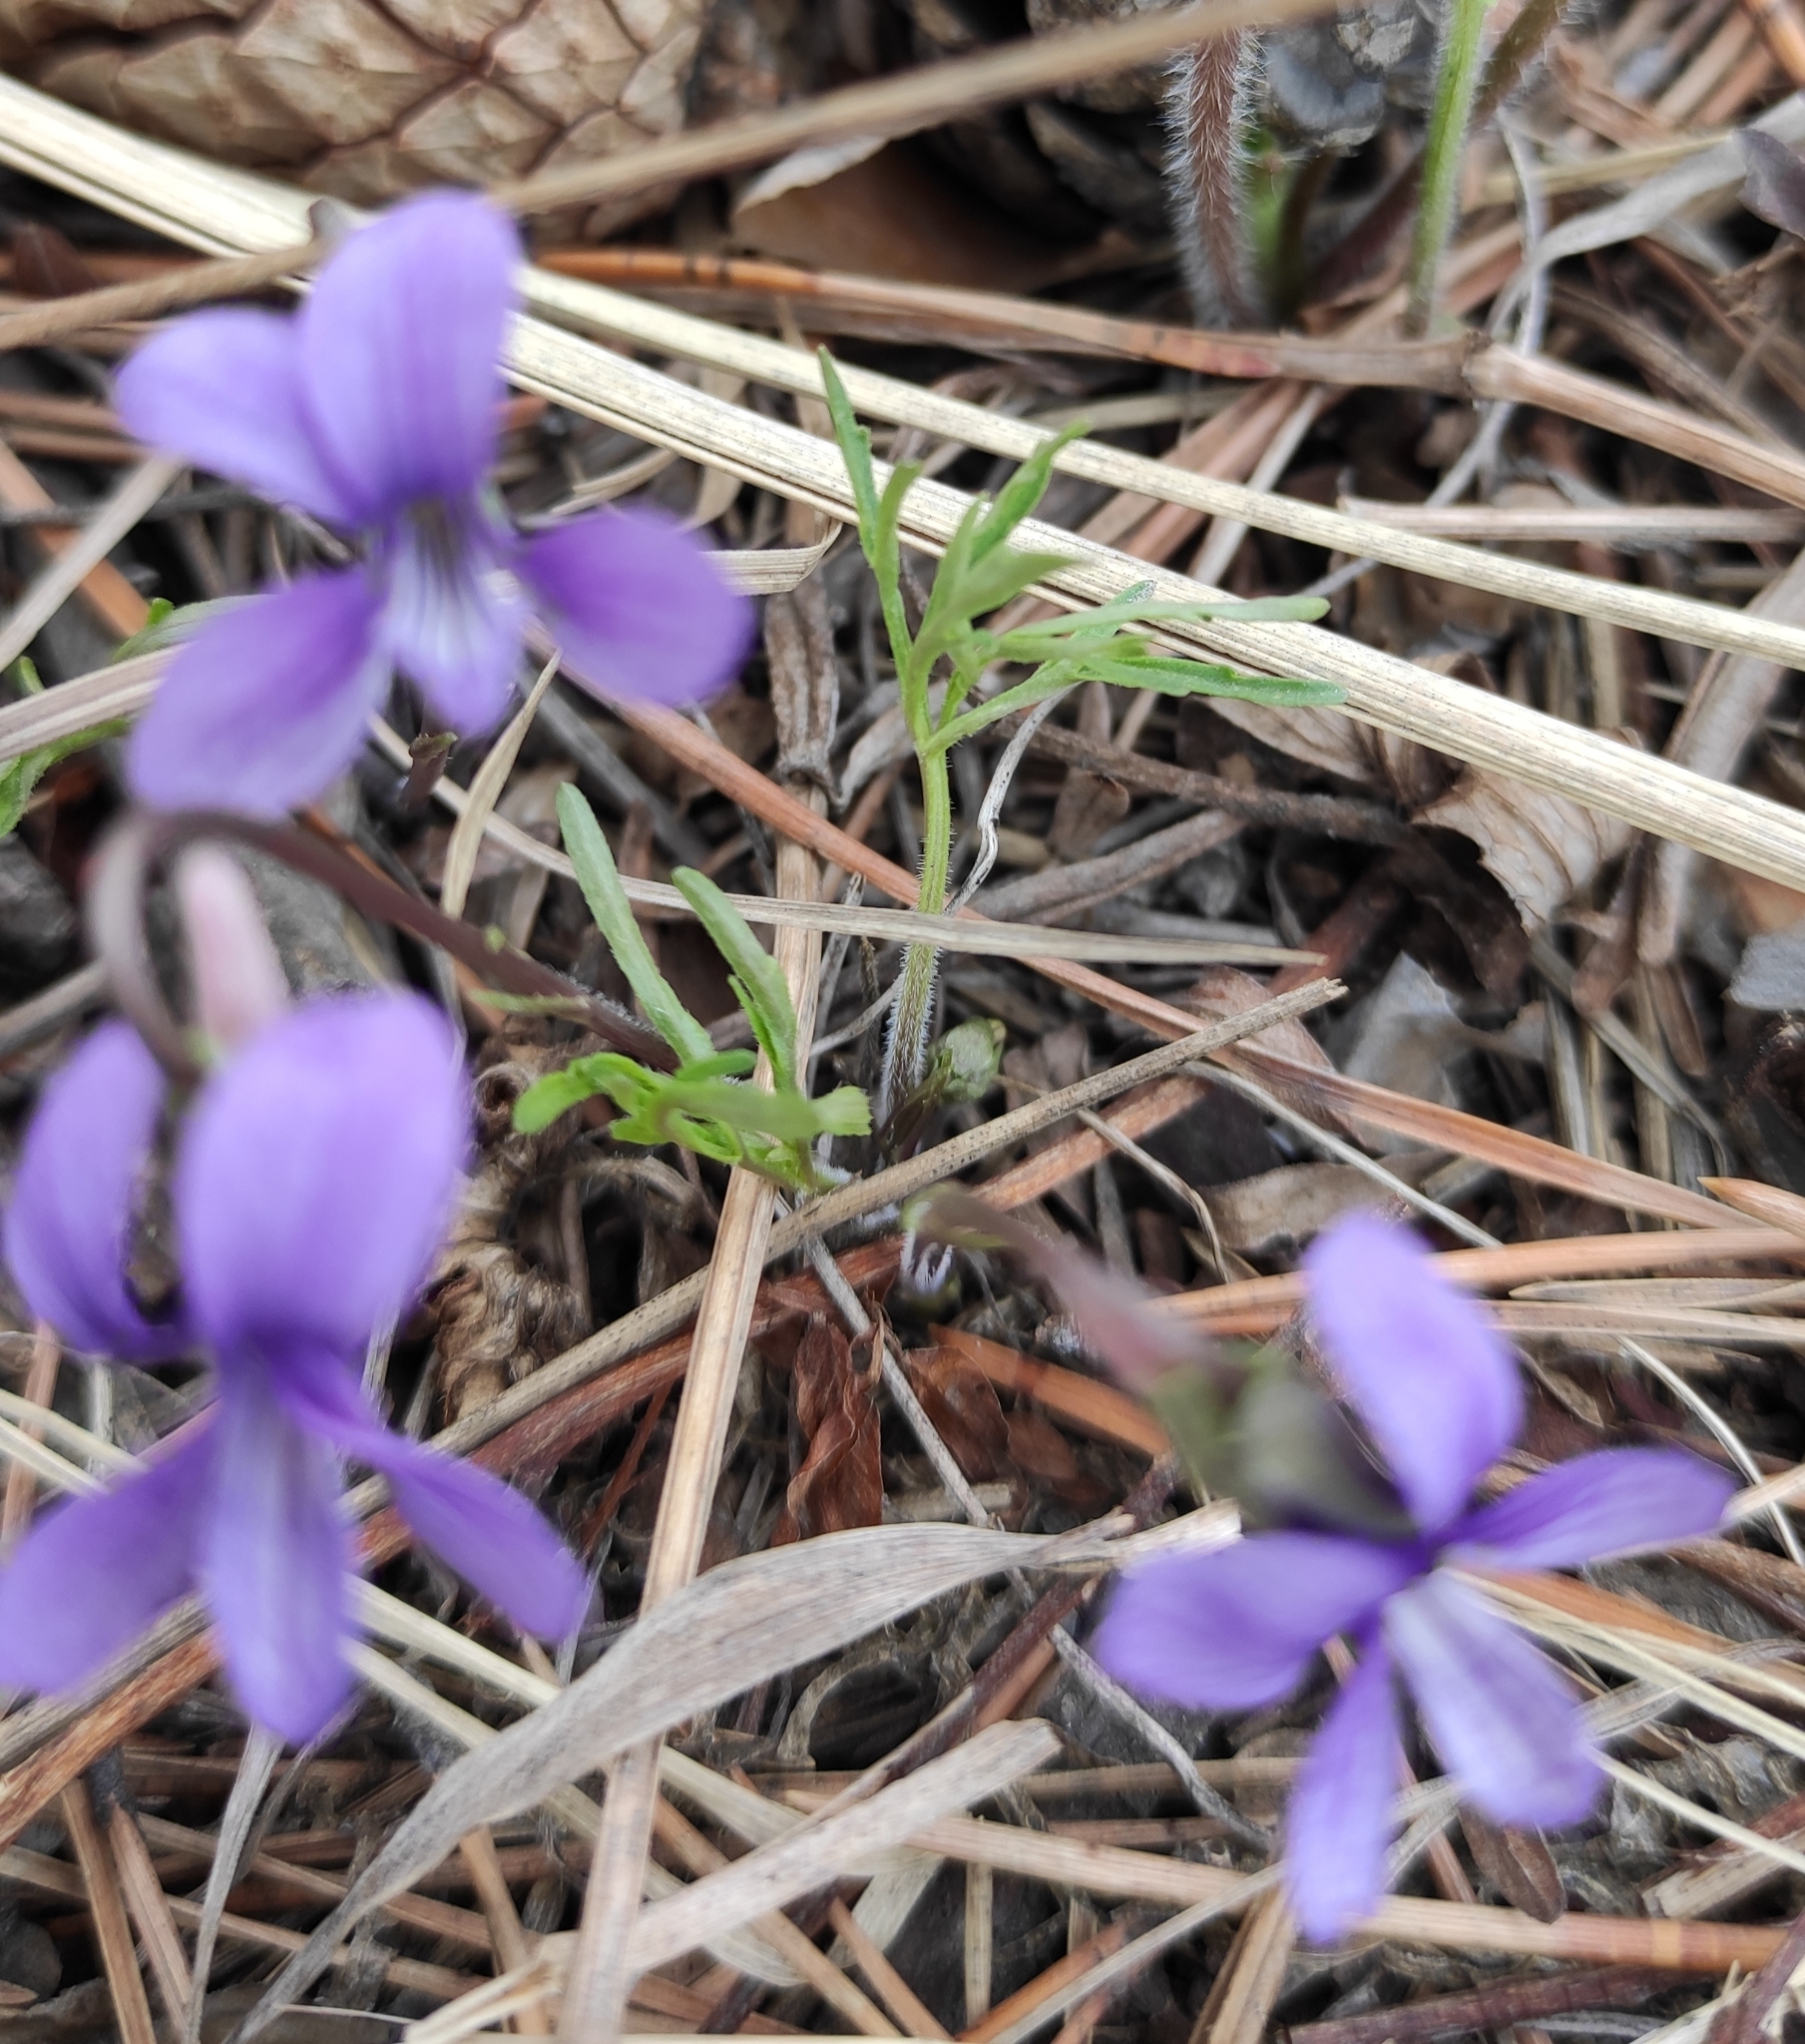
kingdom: Plantae
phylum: Tracheophyta
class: Magnoliopsida
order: Malpighiales
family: Violaceae
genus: Viola
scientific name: Viola multifida
